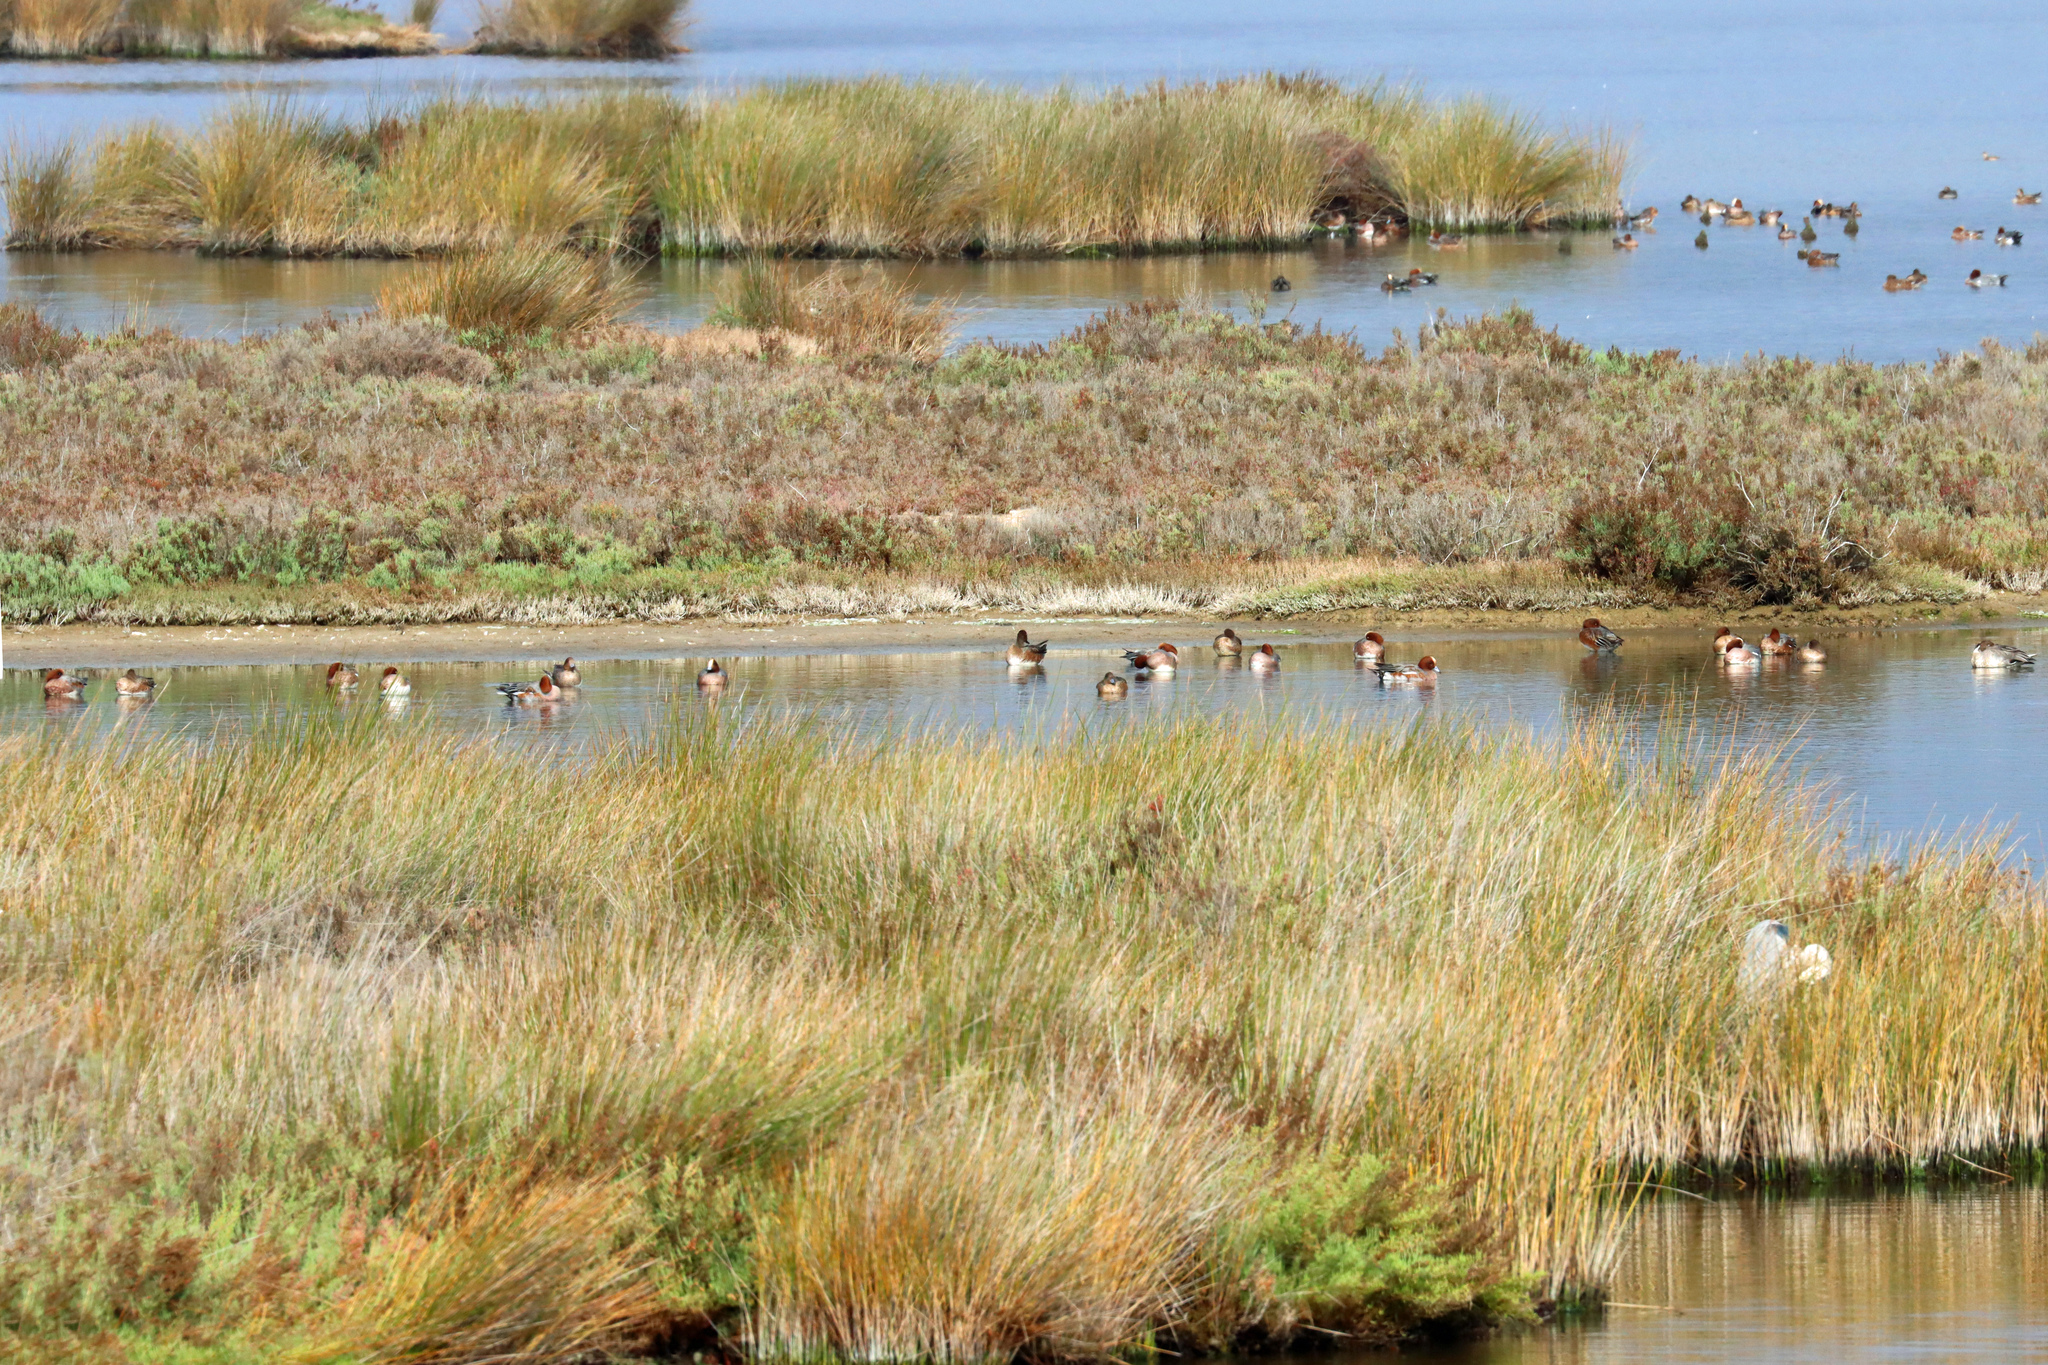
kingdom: Animalia
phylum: Chordata
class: Aves
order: Anseriformes
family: Anatidae
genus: Mareca
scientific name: Mareca penelope
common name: Eurasian wigeon
